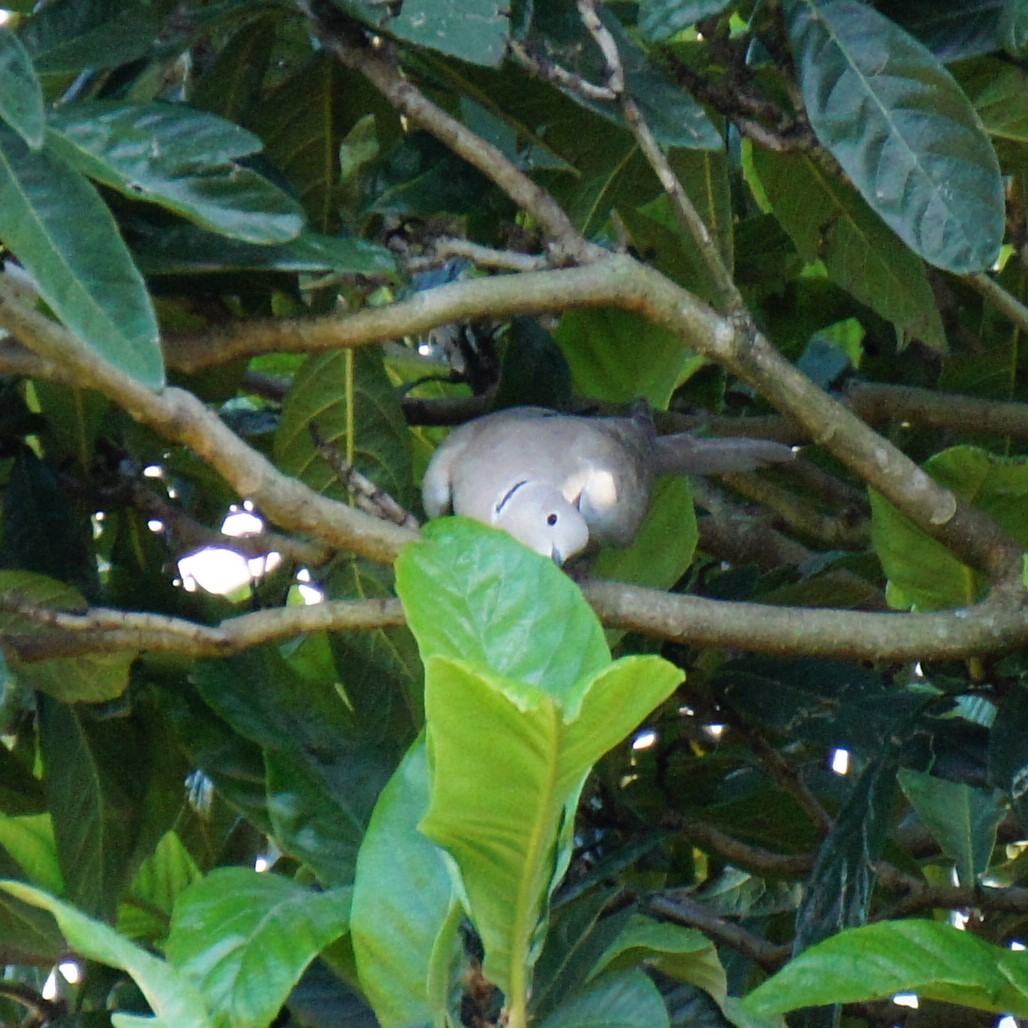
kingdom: Animalia
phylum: Chordata
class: Aves
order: Columbiformes
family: Columbidae
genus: Streptopelia
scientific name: Streptopelia decaocto
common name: Eurasian collared dove
